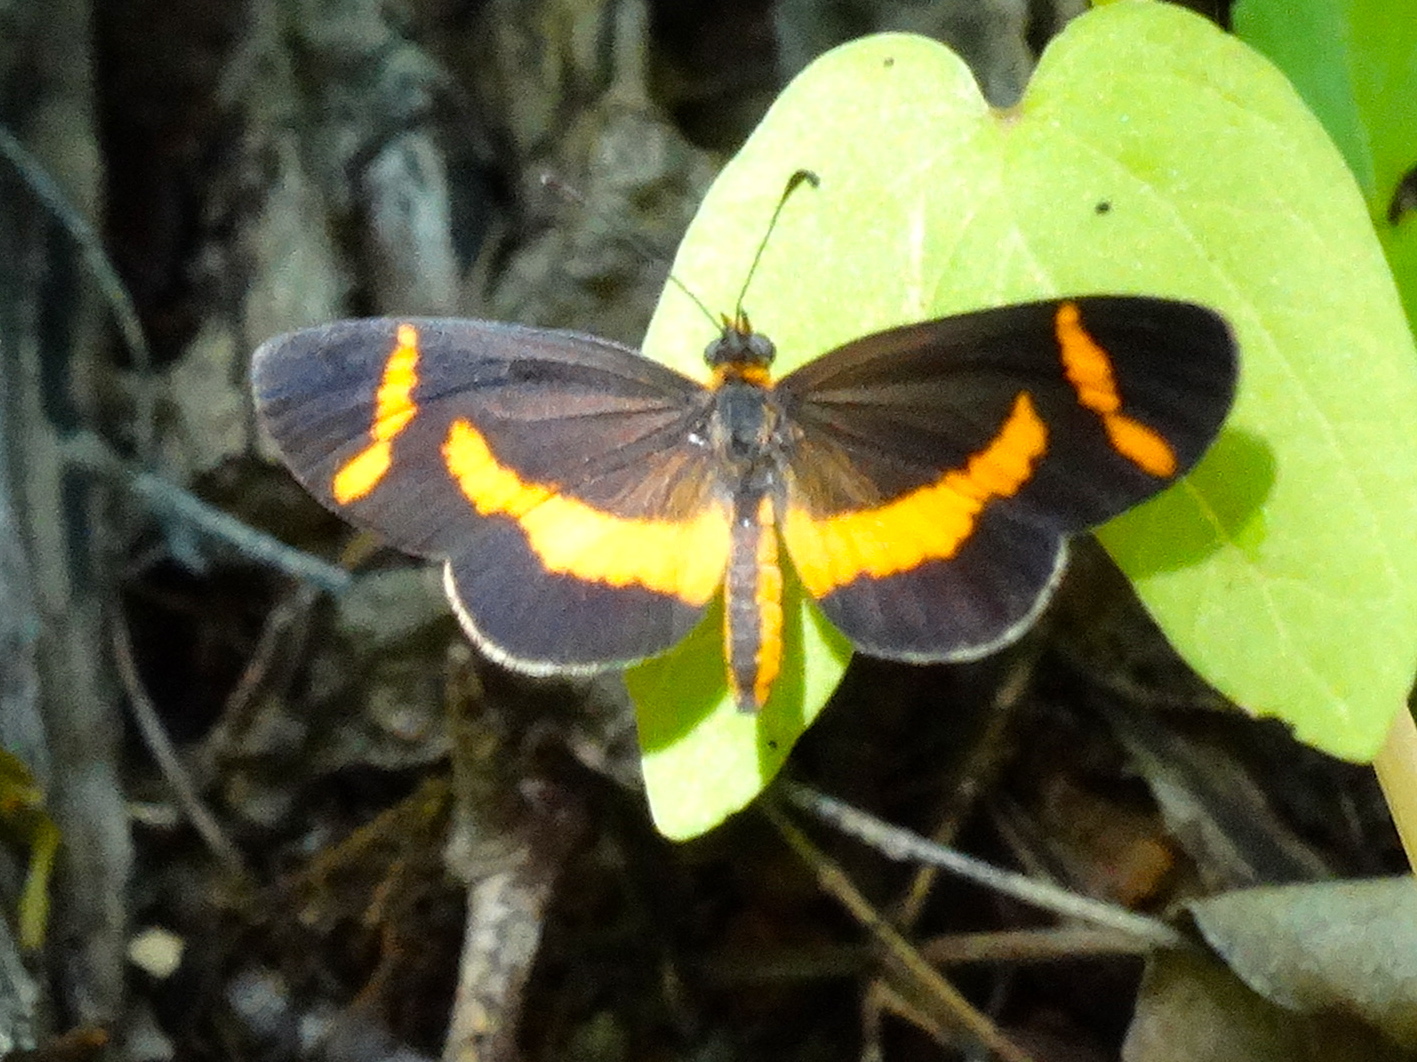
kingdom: Animalia
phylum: Arthropoda
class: Insecta
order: Lepidoptera
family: Nymphalidae
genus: Microtia
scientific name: Microtia elva
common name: Elf
